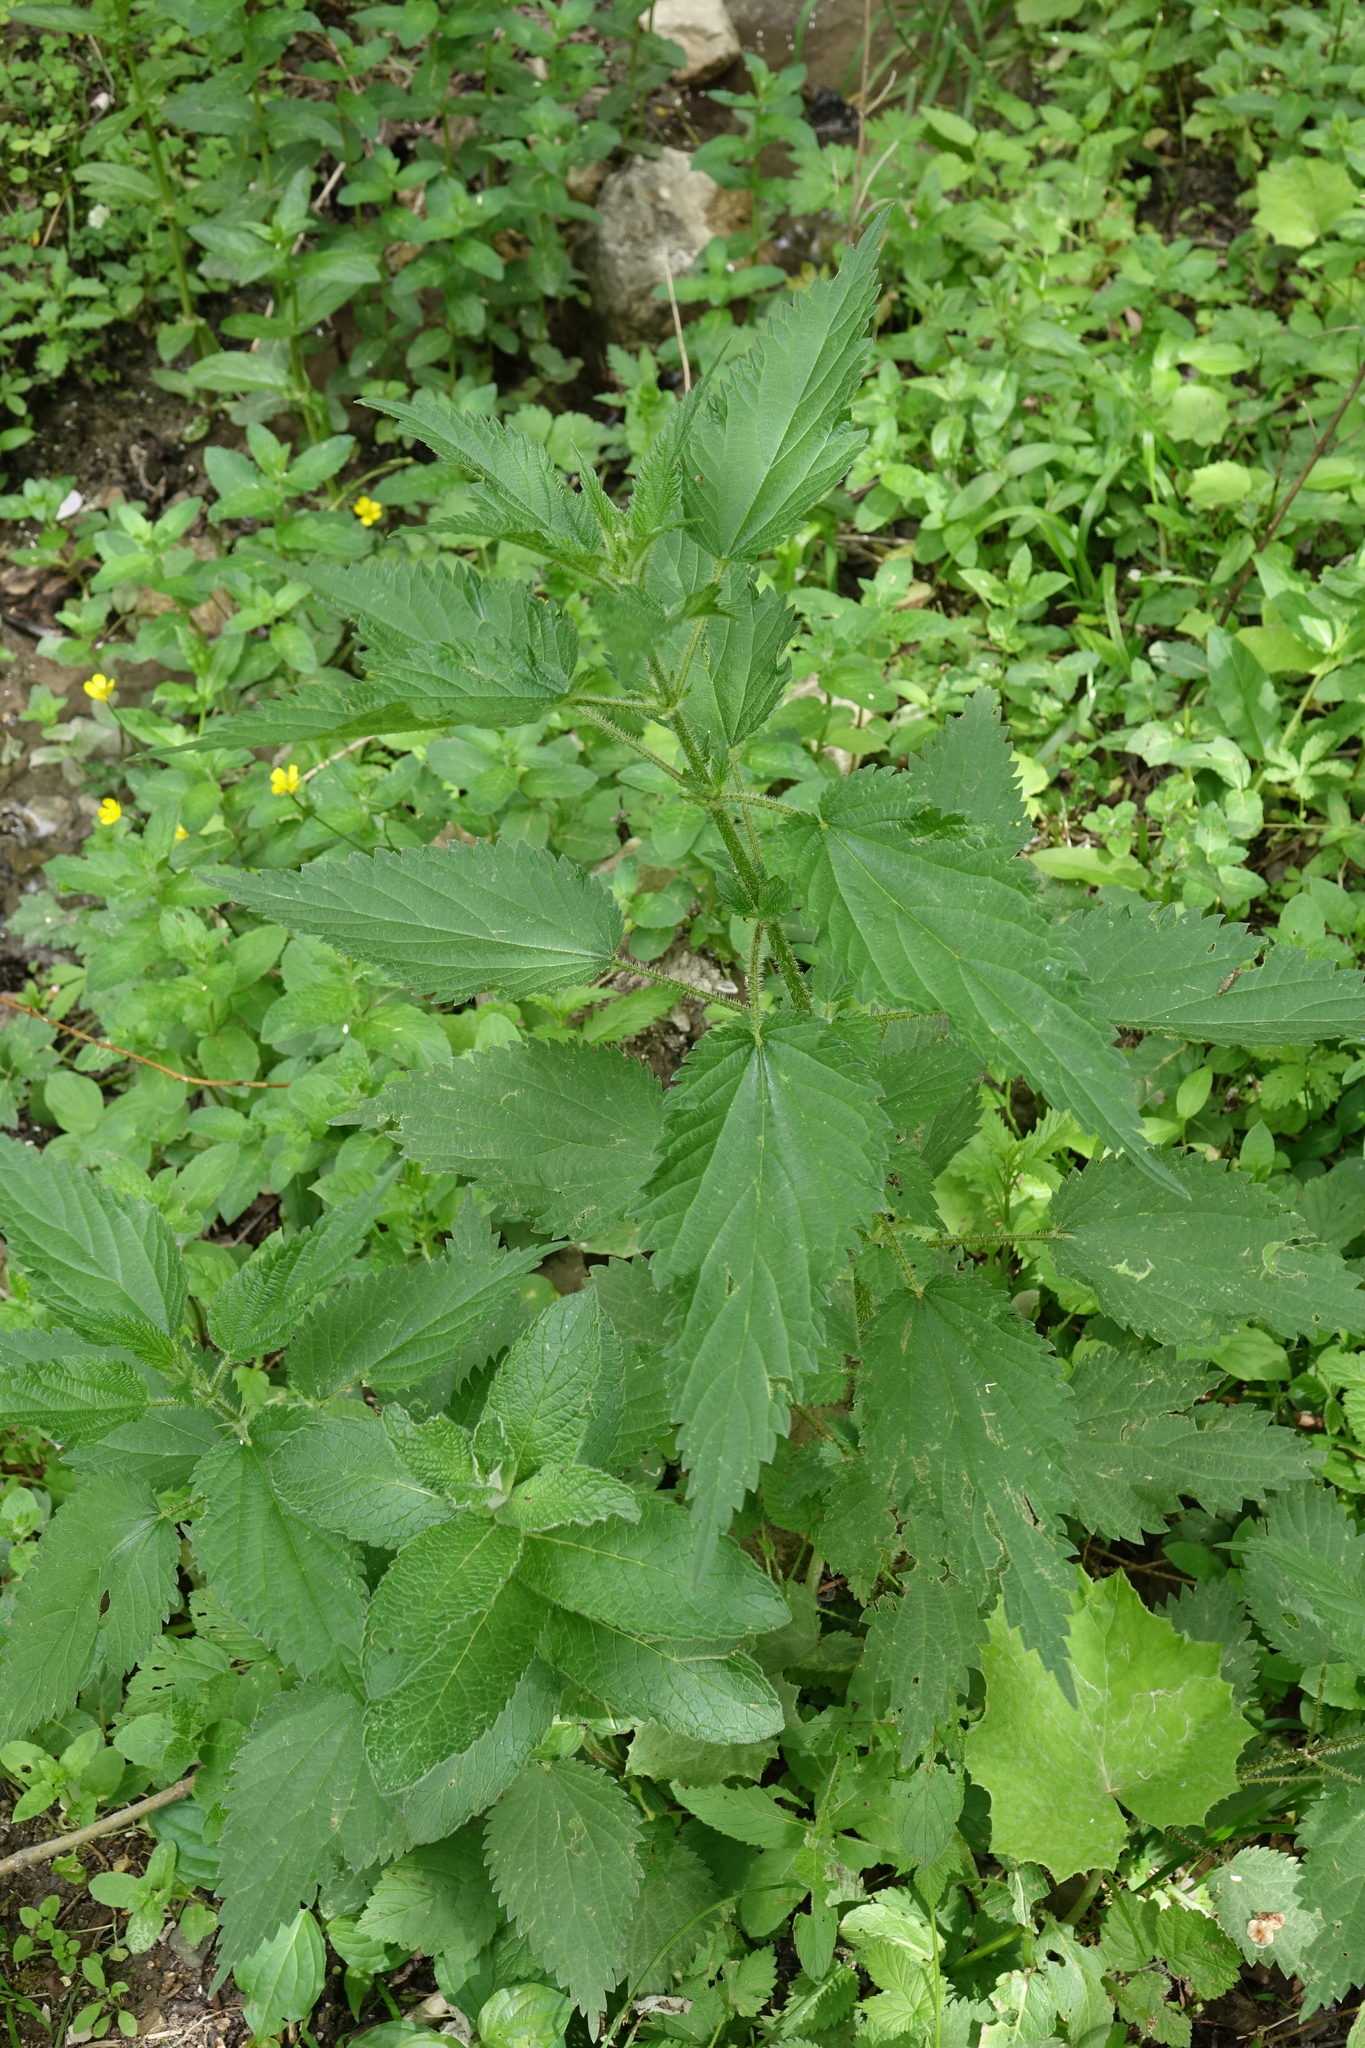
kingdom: Plantae
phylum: Tracheophyta
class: Magnoliopsida
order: Rosales
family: Urticaceae
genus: Urtica
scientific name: Urtica dioica
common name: Common nettle
